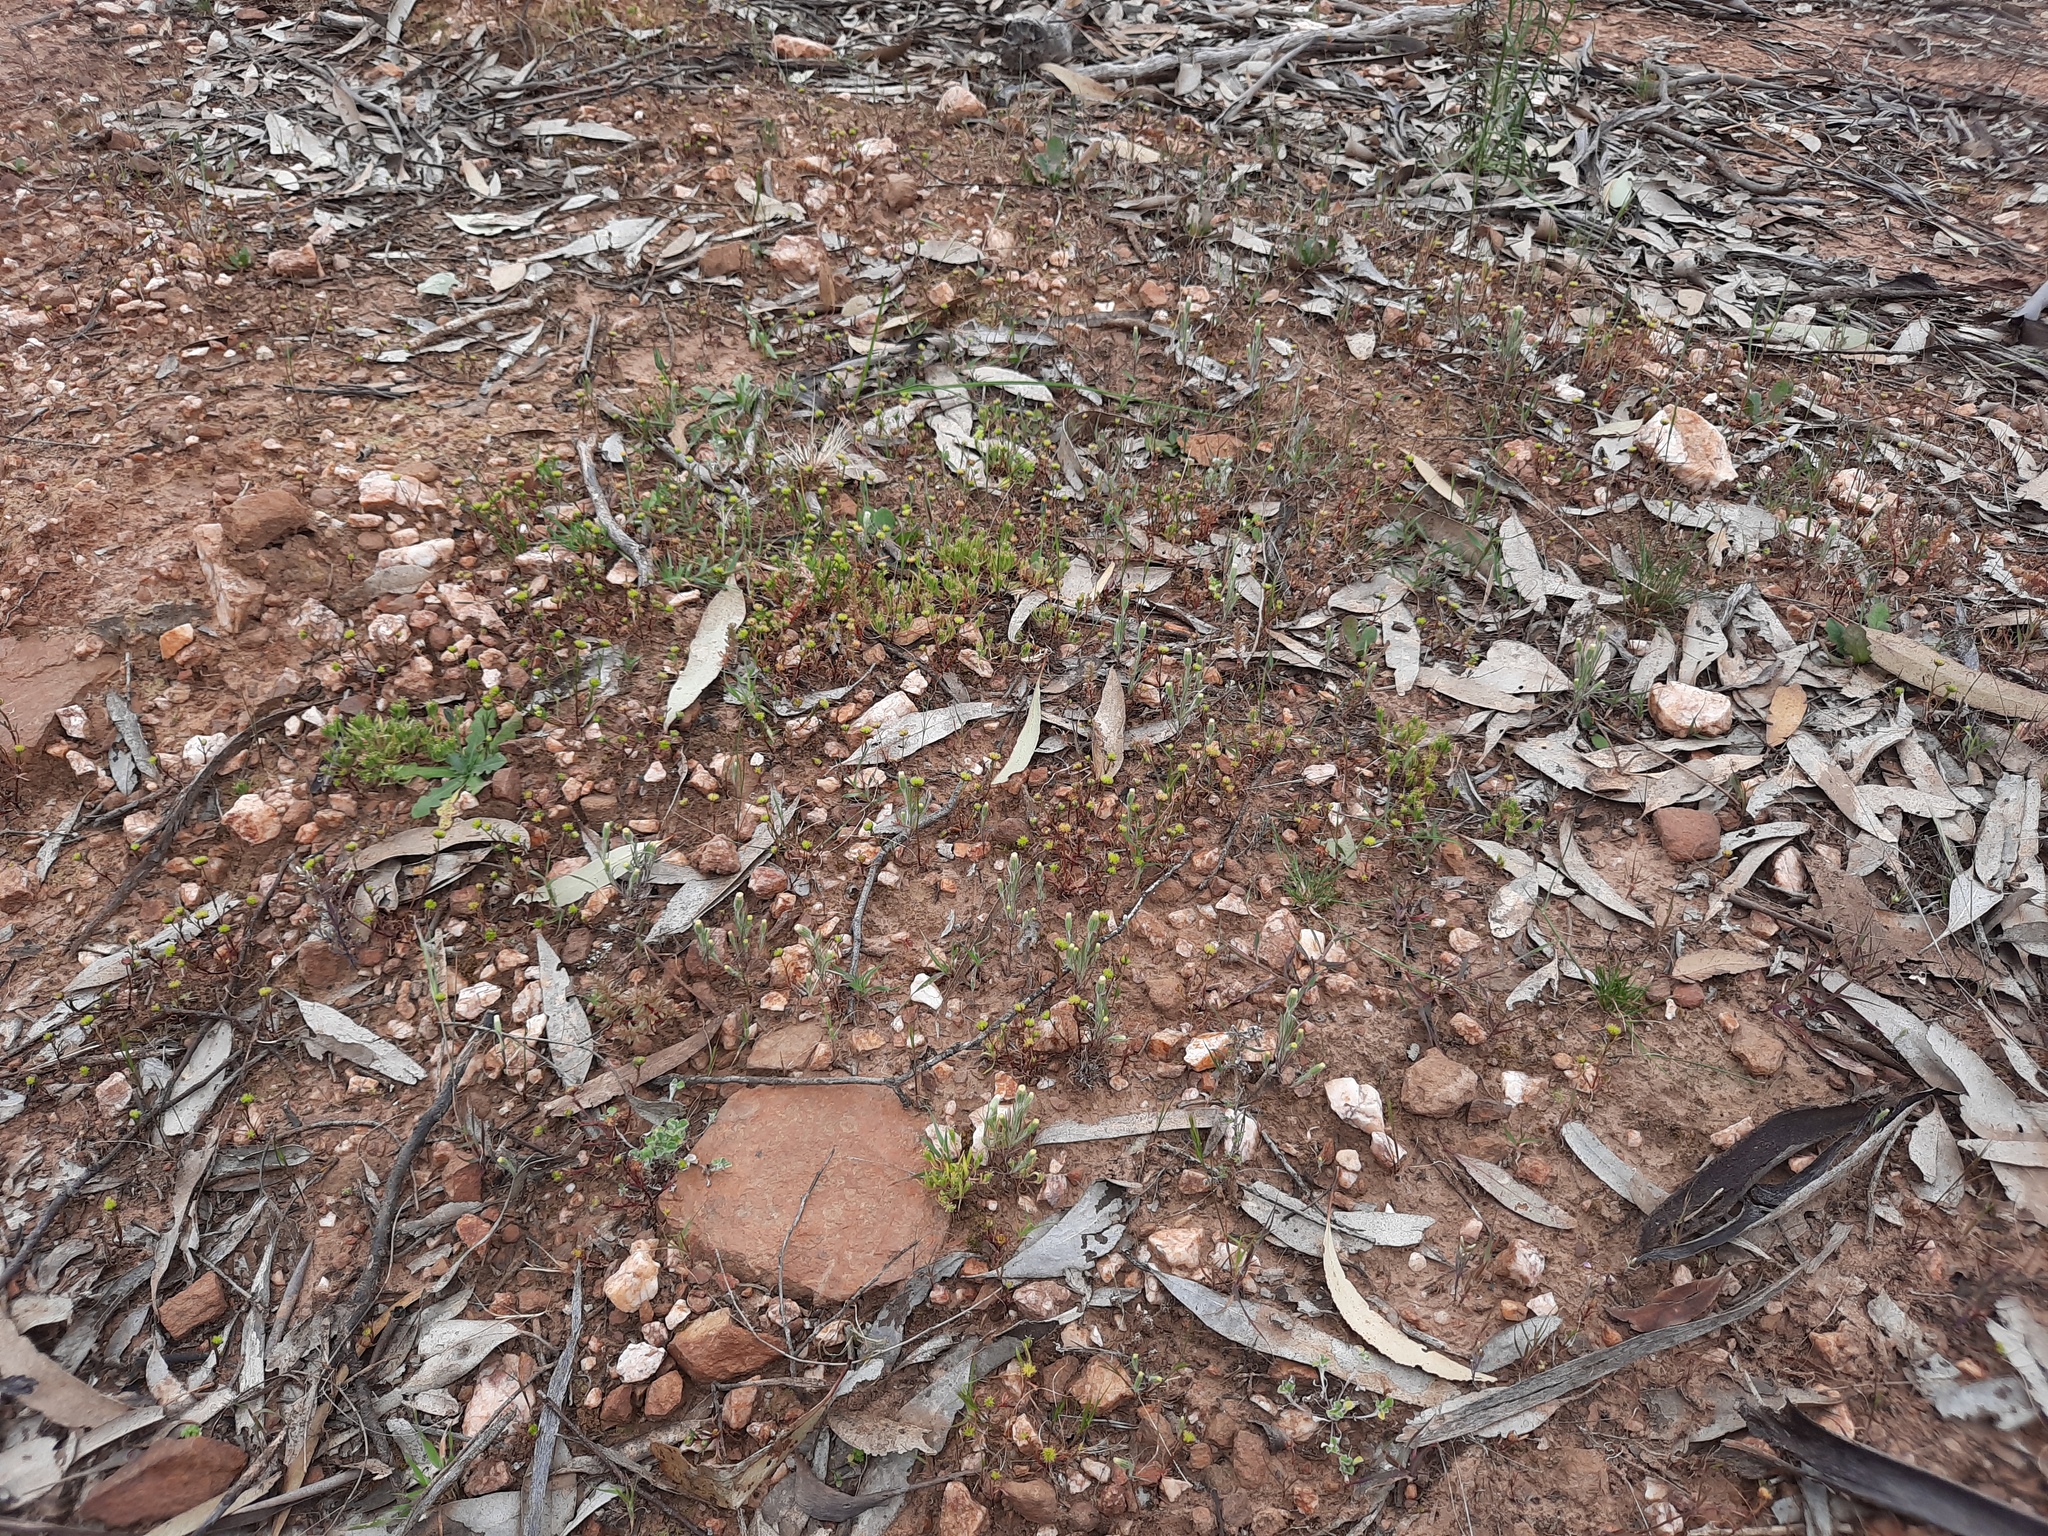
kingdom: Plantae
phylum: Tracheophyta
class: Magnoliopsida
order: Saxifragales
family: Crassulaceae
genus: Crassula
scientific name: Crassula sieberiana
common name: Siberian pygmyweed
